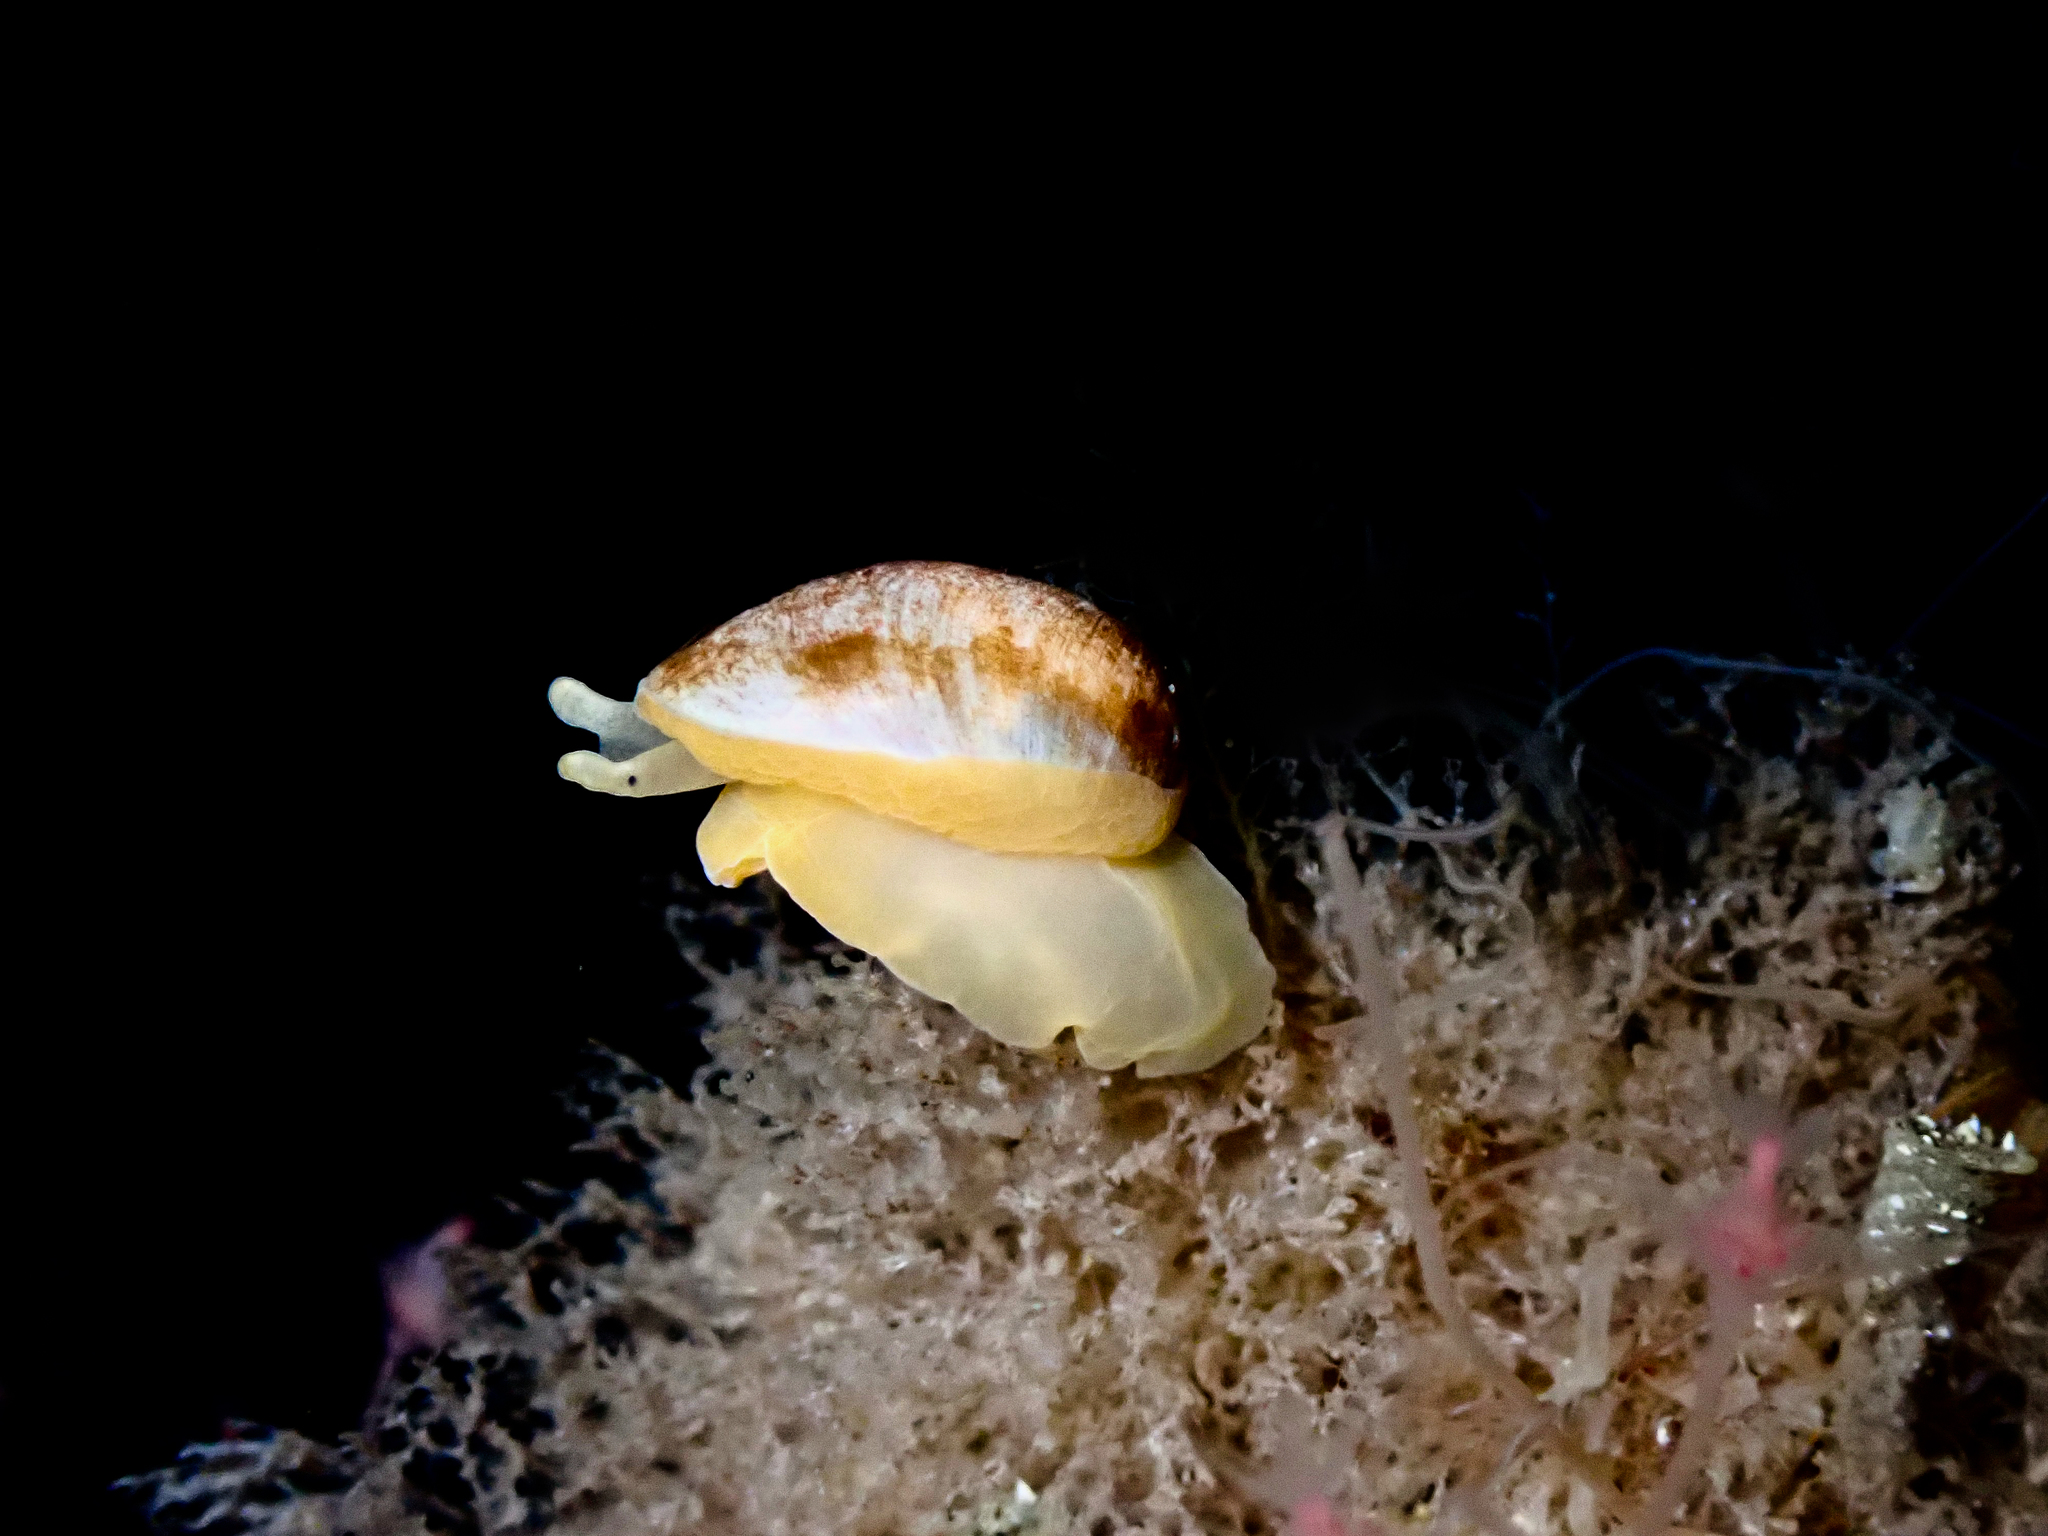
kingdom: Animalia
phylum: Mollusca
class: Gastropoda
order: Littorinimorpha
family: Velutinidae
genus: Velutina
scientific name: Velutina plicatilis
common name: Oblique lamellaria
